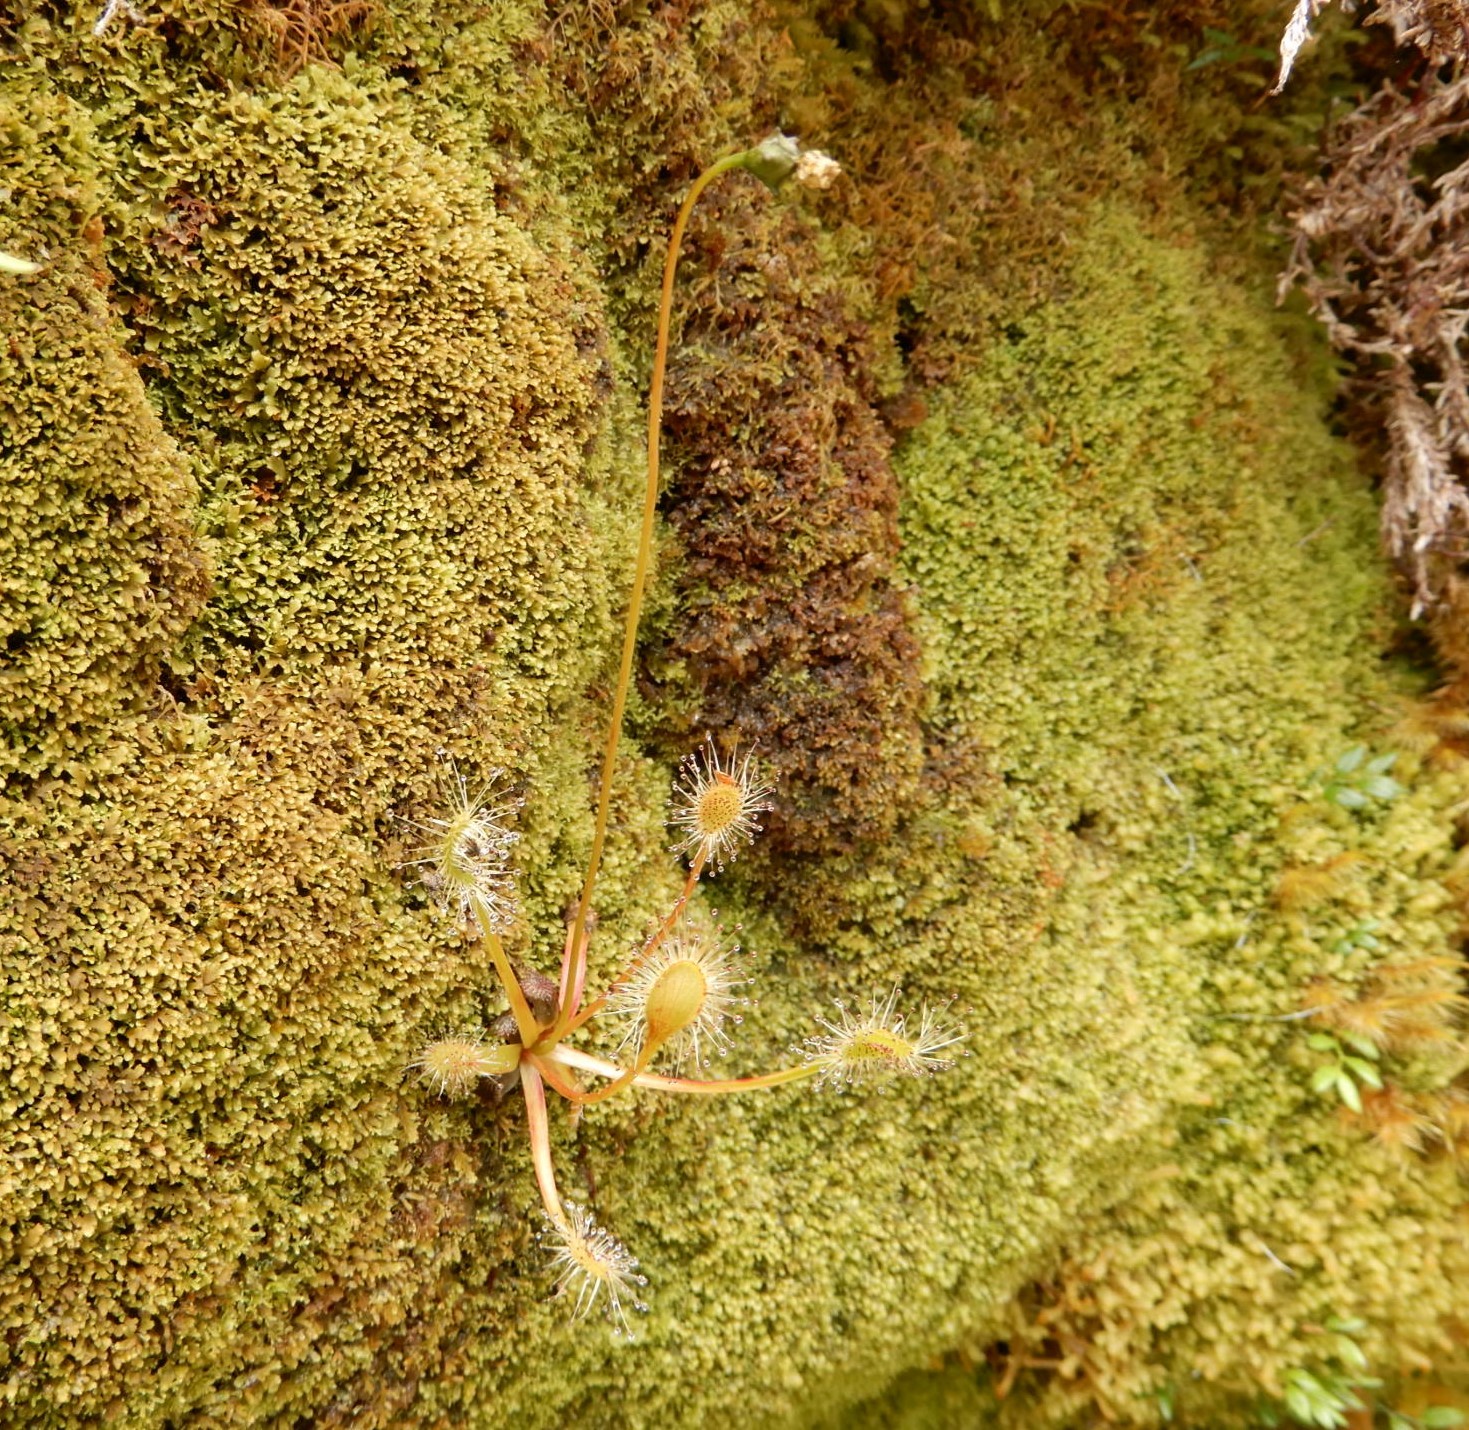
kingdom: Plantae
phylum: Tracheophyta
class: Magnoliopsida
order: Caryophyllales
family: Droseraceae
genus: Drosera
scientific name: Drosera stenopetala
